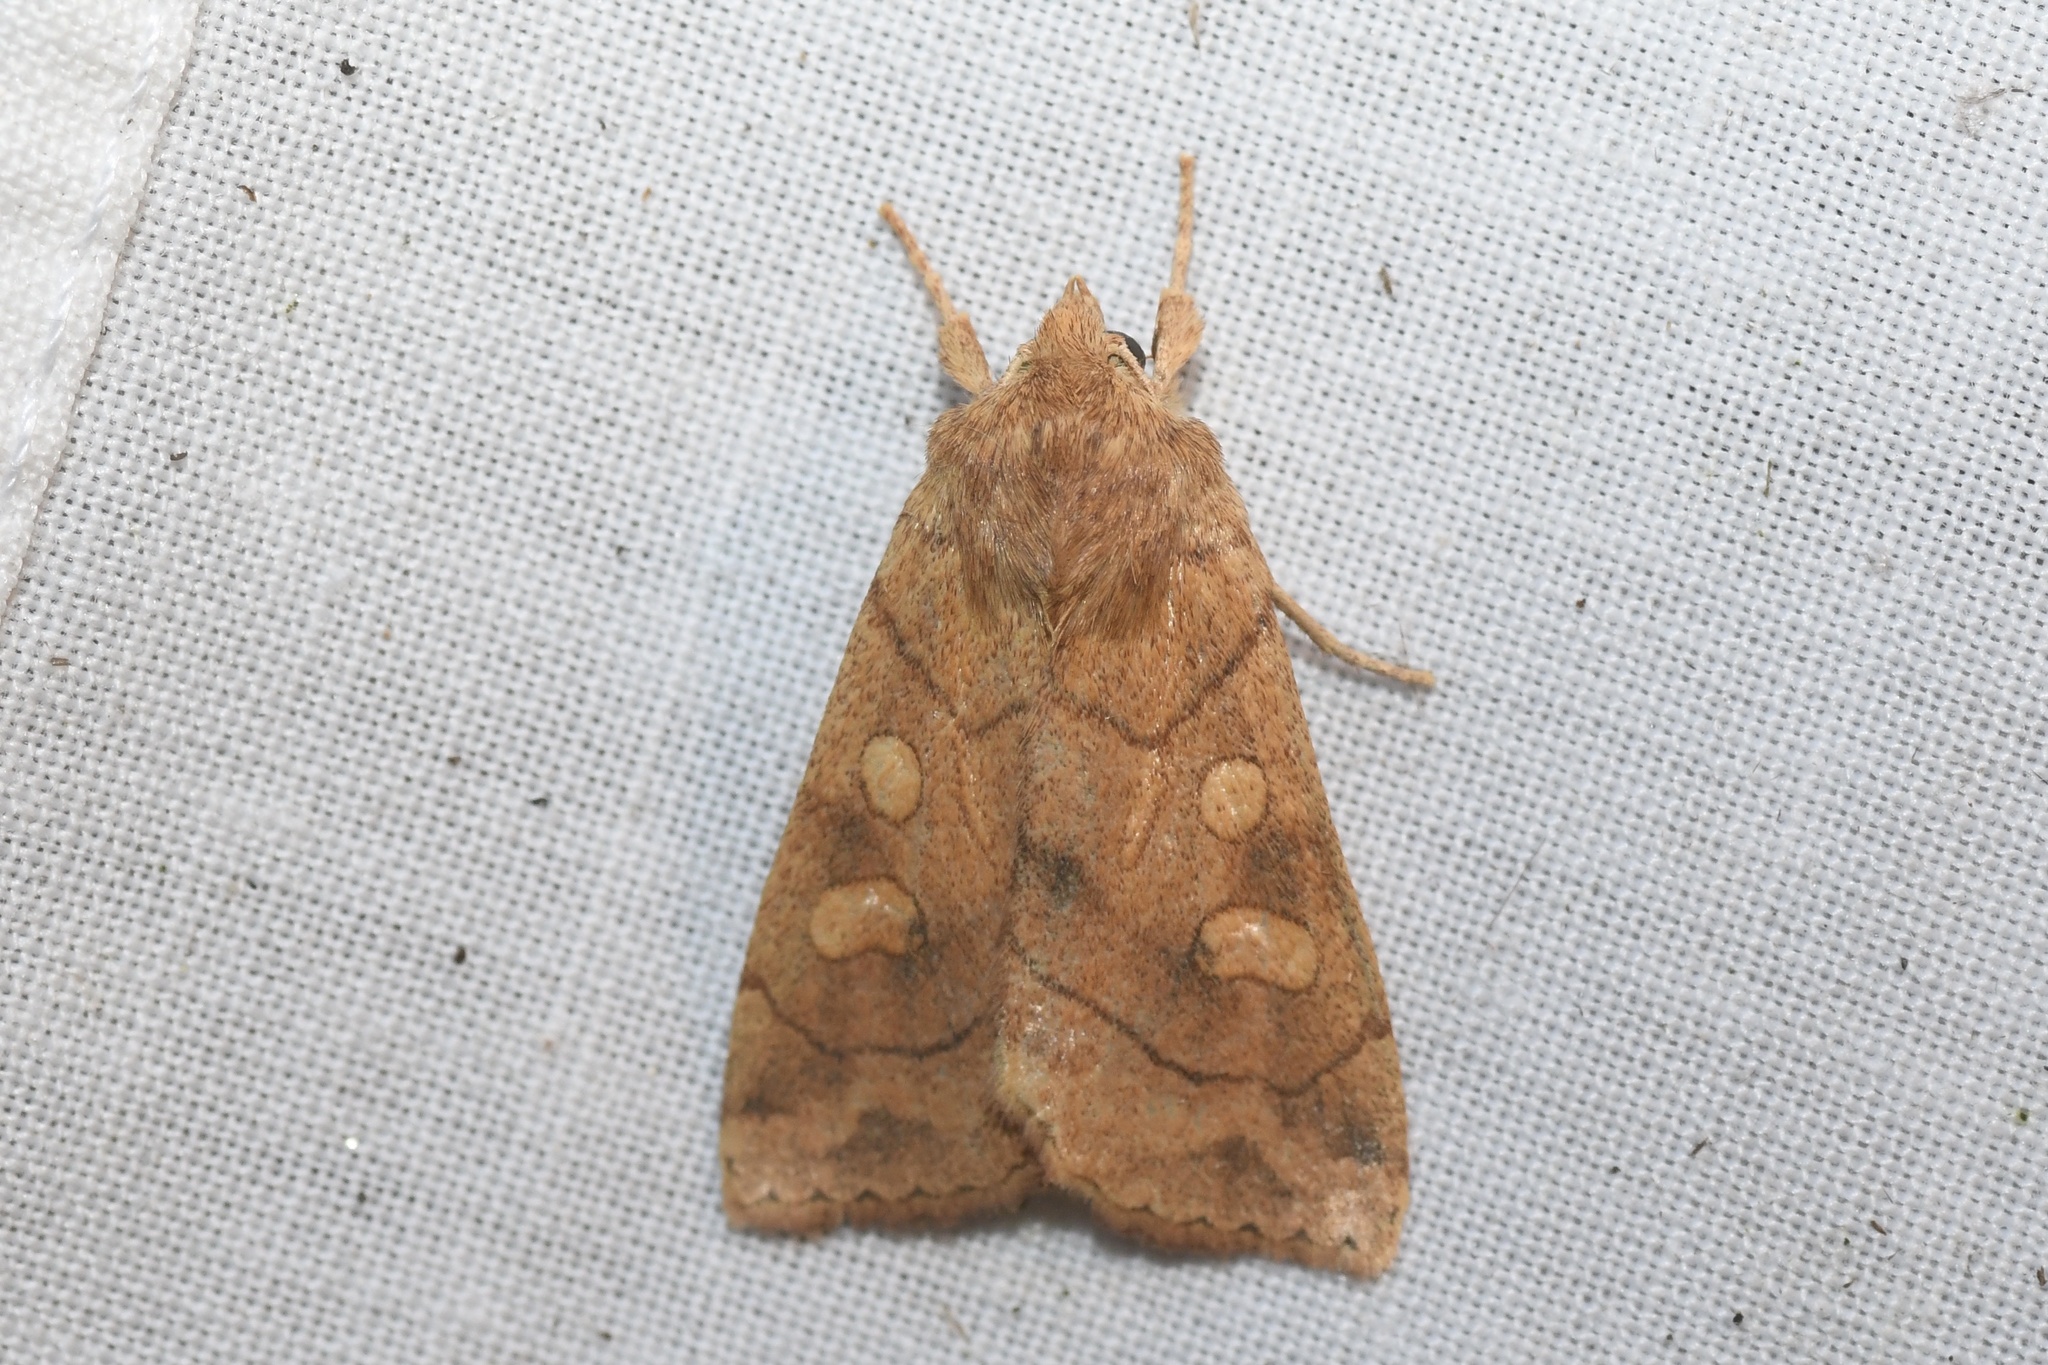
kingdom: Animalia
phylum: Arthropoda
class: Insecta
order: Lepidoptera
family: Noctuidae
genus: Enargia
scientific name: Enargia decolor
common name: Aspen twoleaf tier moth
